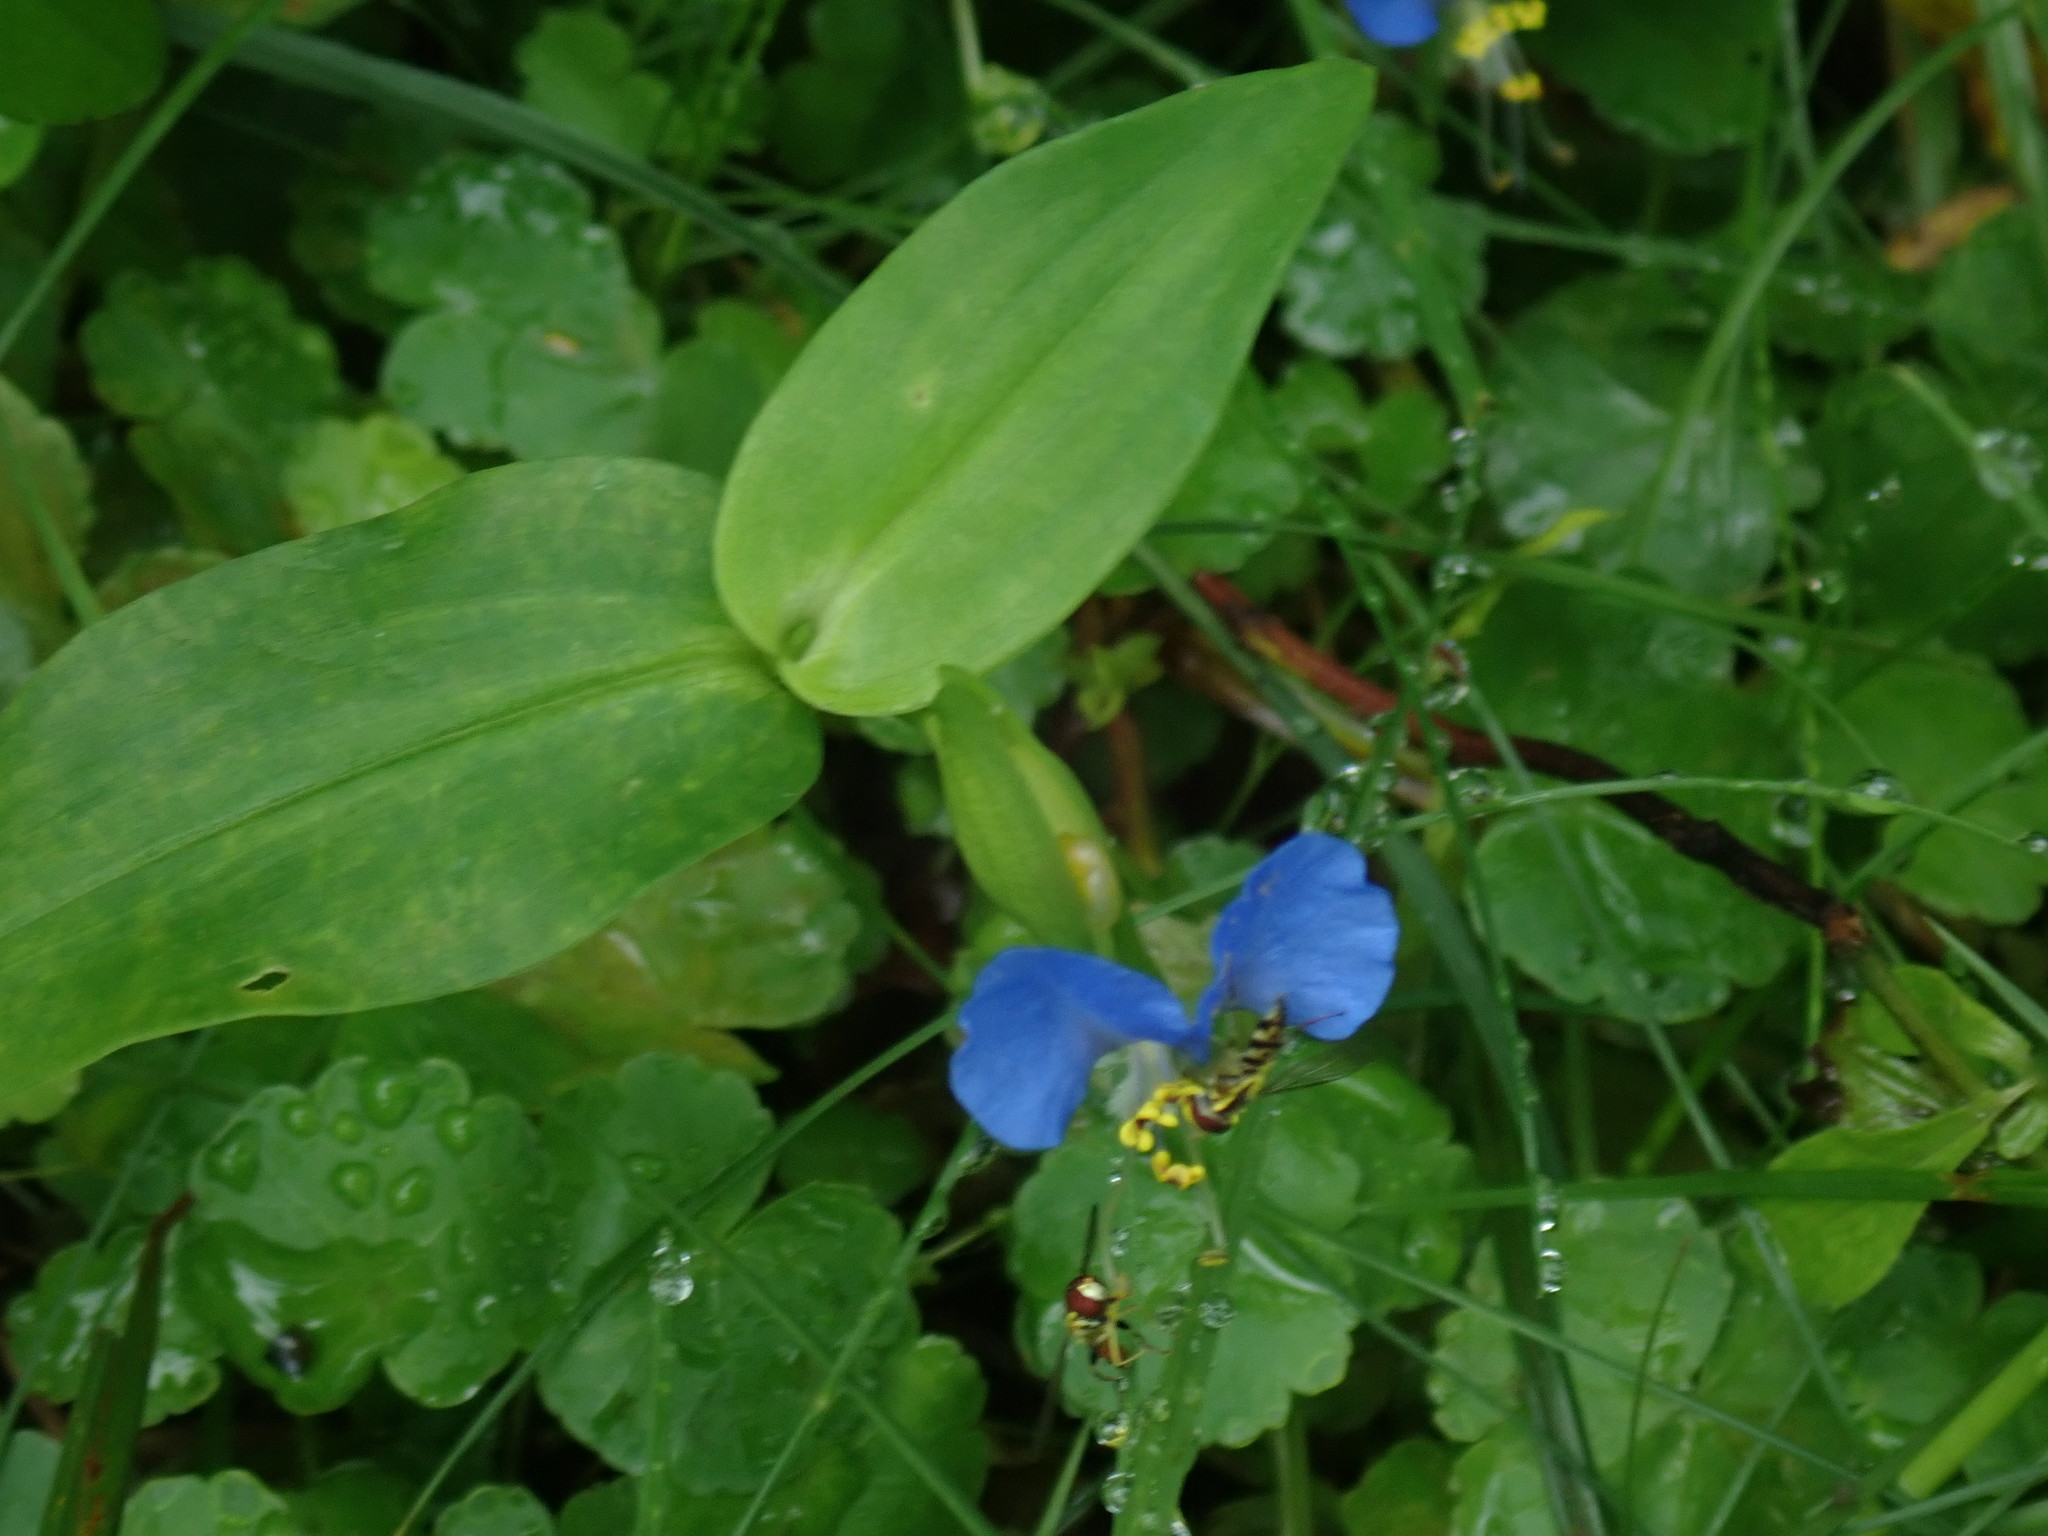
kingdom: Plantae
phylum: Tracheophyta
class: Liliopsida
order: Commelinales
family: Commelinaceae
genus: Commelina
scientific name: Commelina communis
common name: Asiatic dayflower
